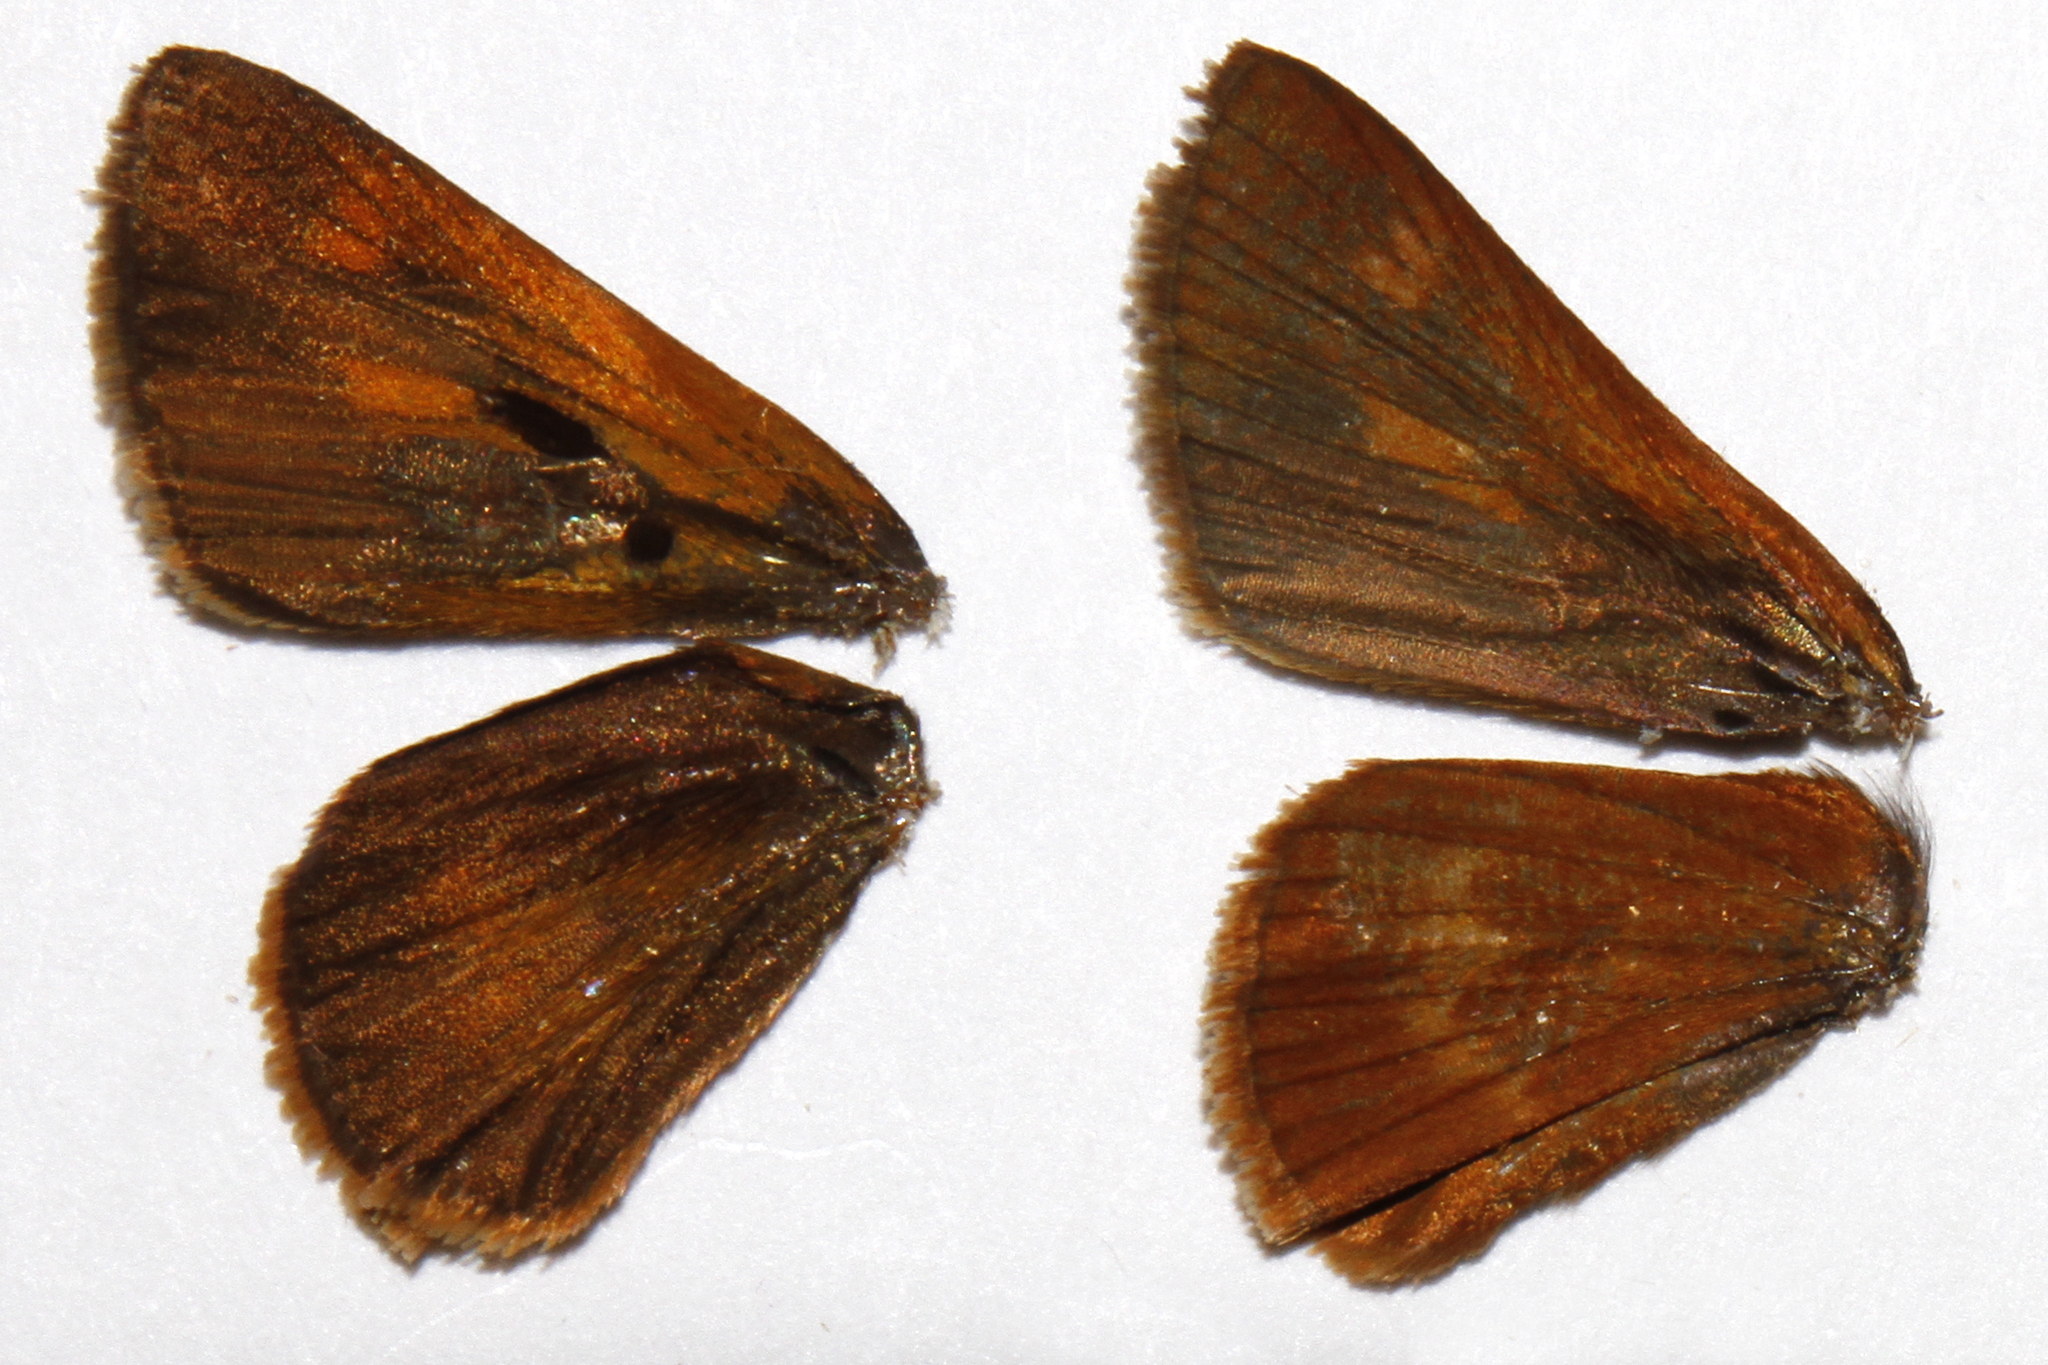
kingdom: Animalia
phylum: Arthropoda
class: Insecta
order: Lepidoptera
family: Hesperiidae
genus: Polites
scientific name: Polites otho
